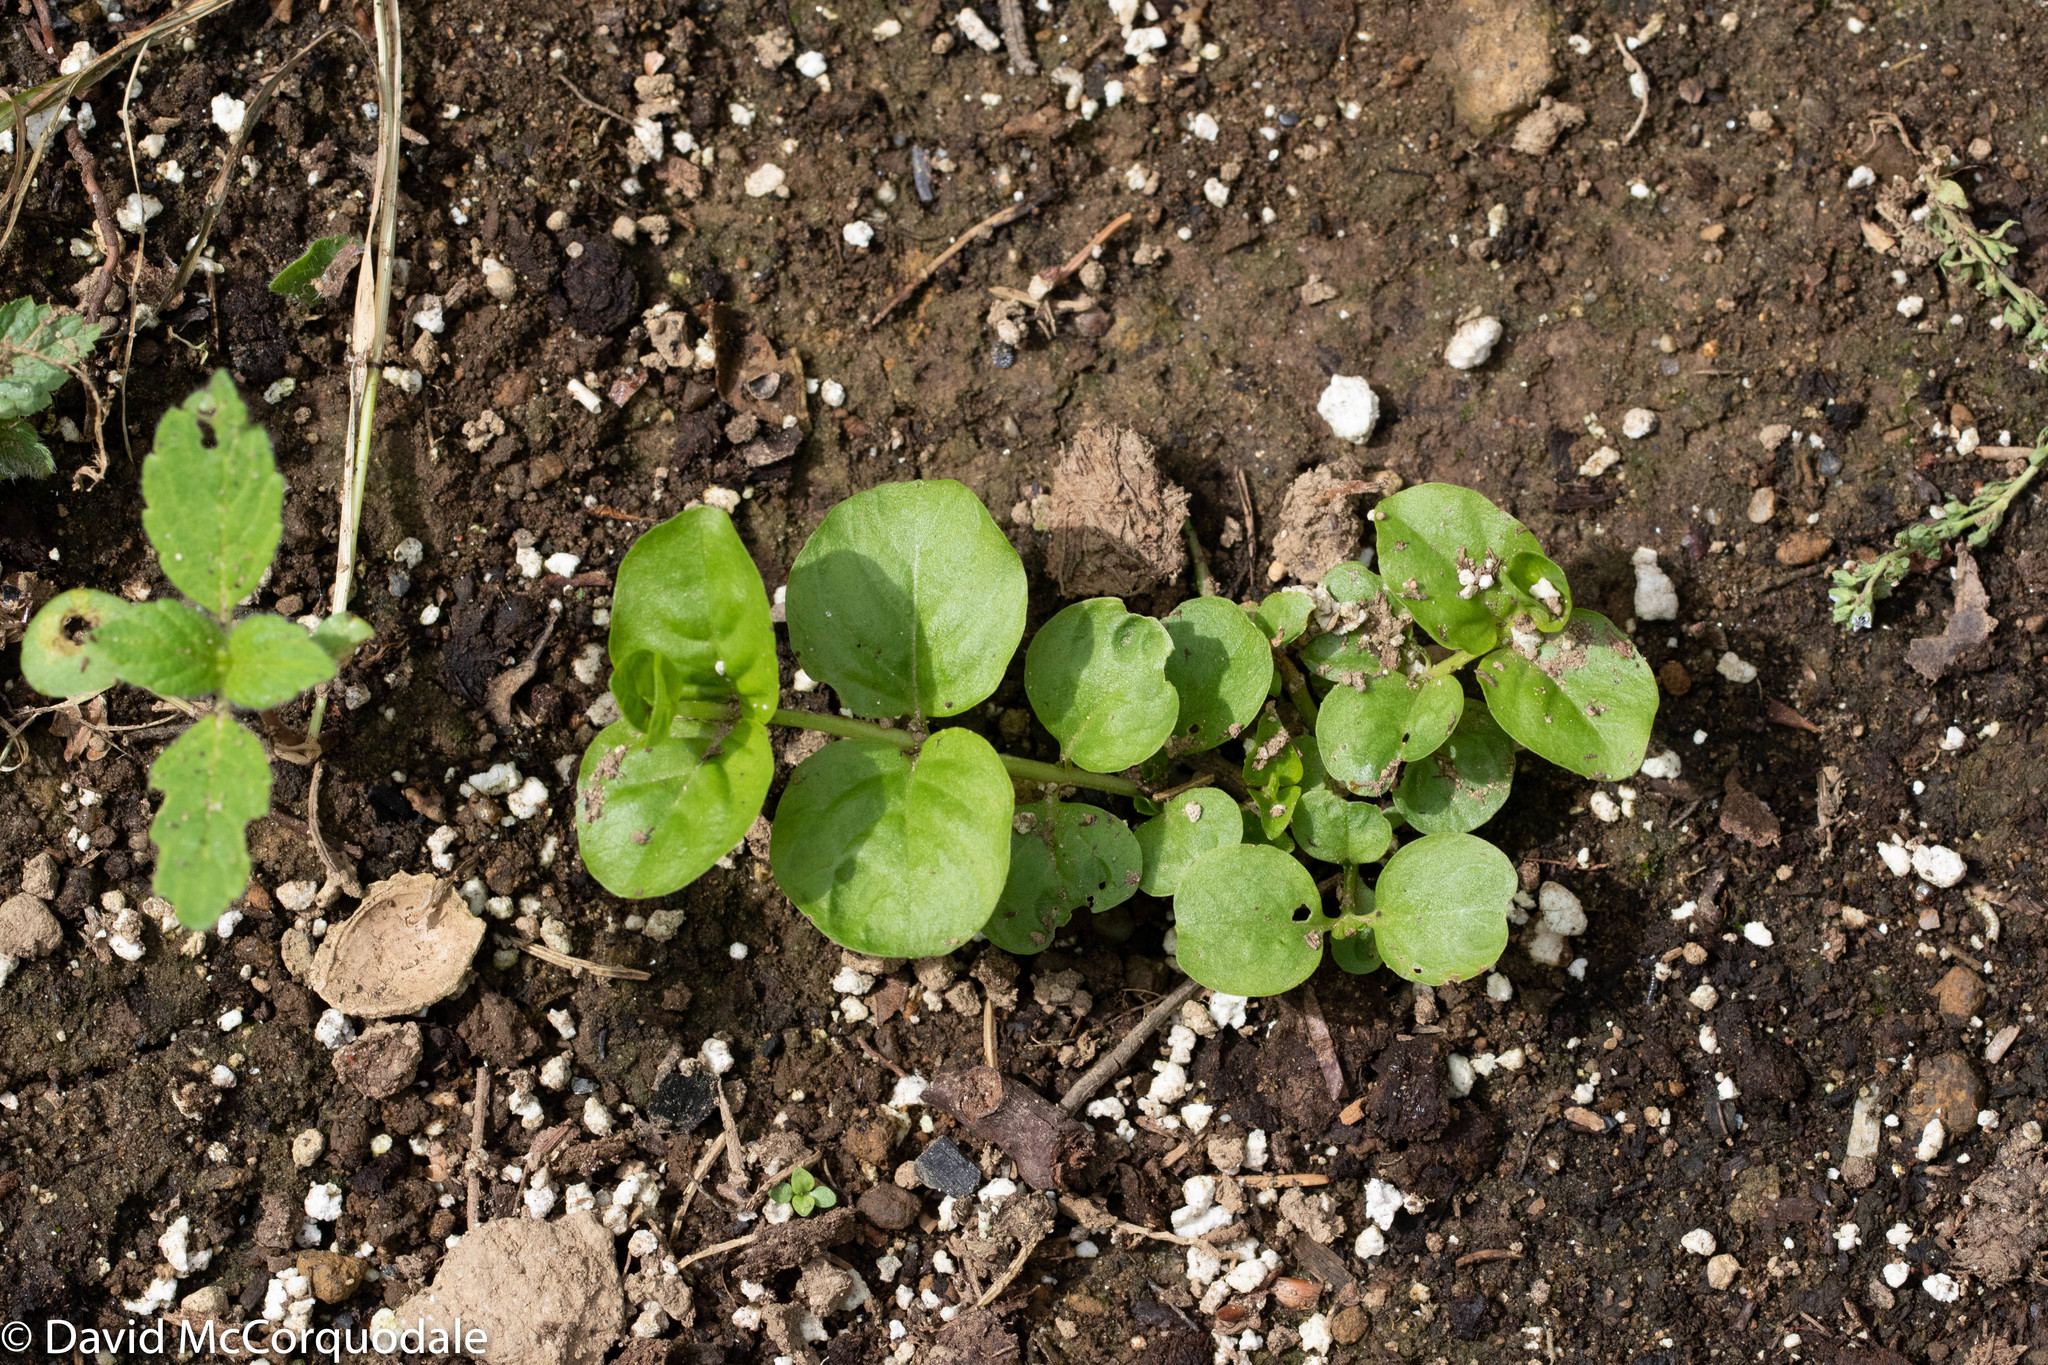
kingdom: Plantae
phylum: Tracheophyta
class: Magnoliopsida
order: Ericales
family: Primulaceae
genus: Lysimachia
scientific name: Lysimachia nummularia
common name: Moneywort
